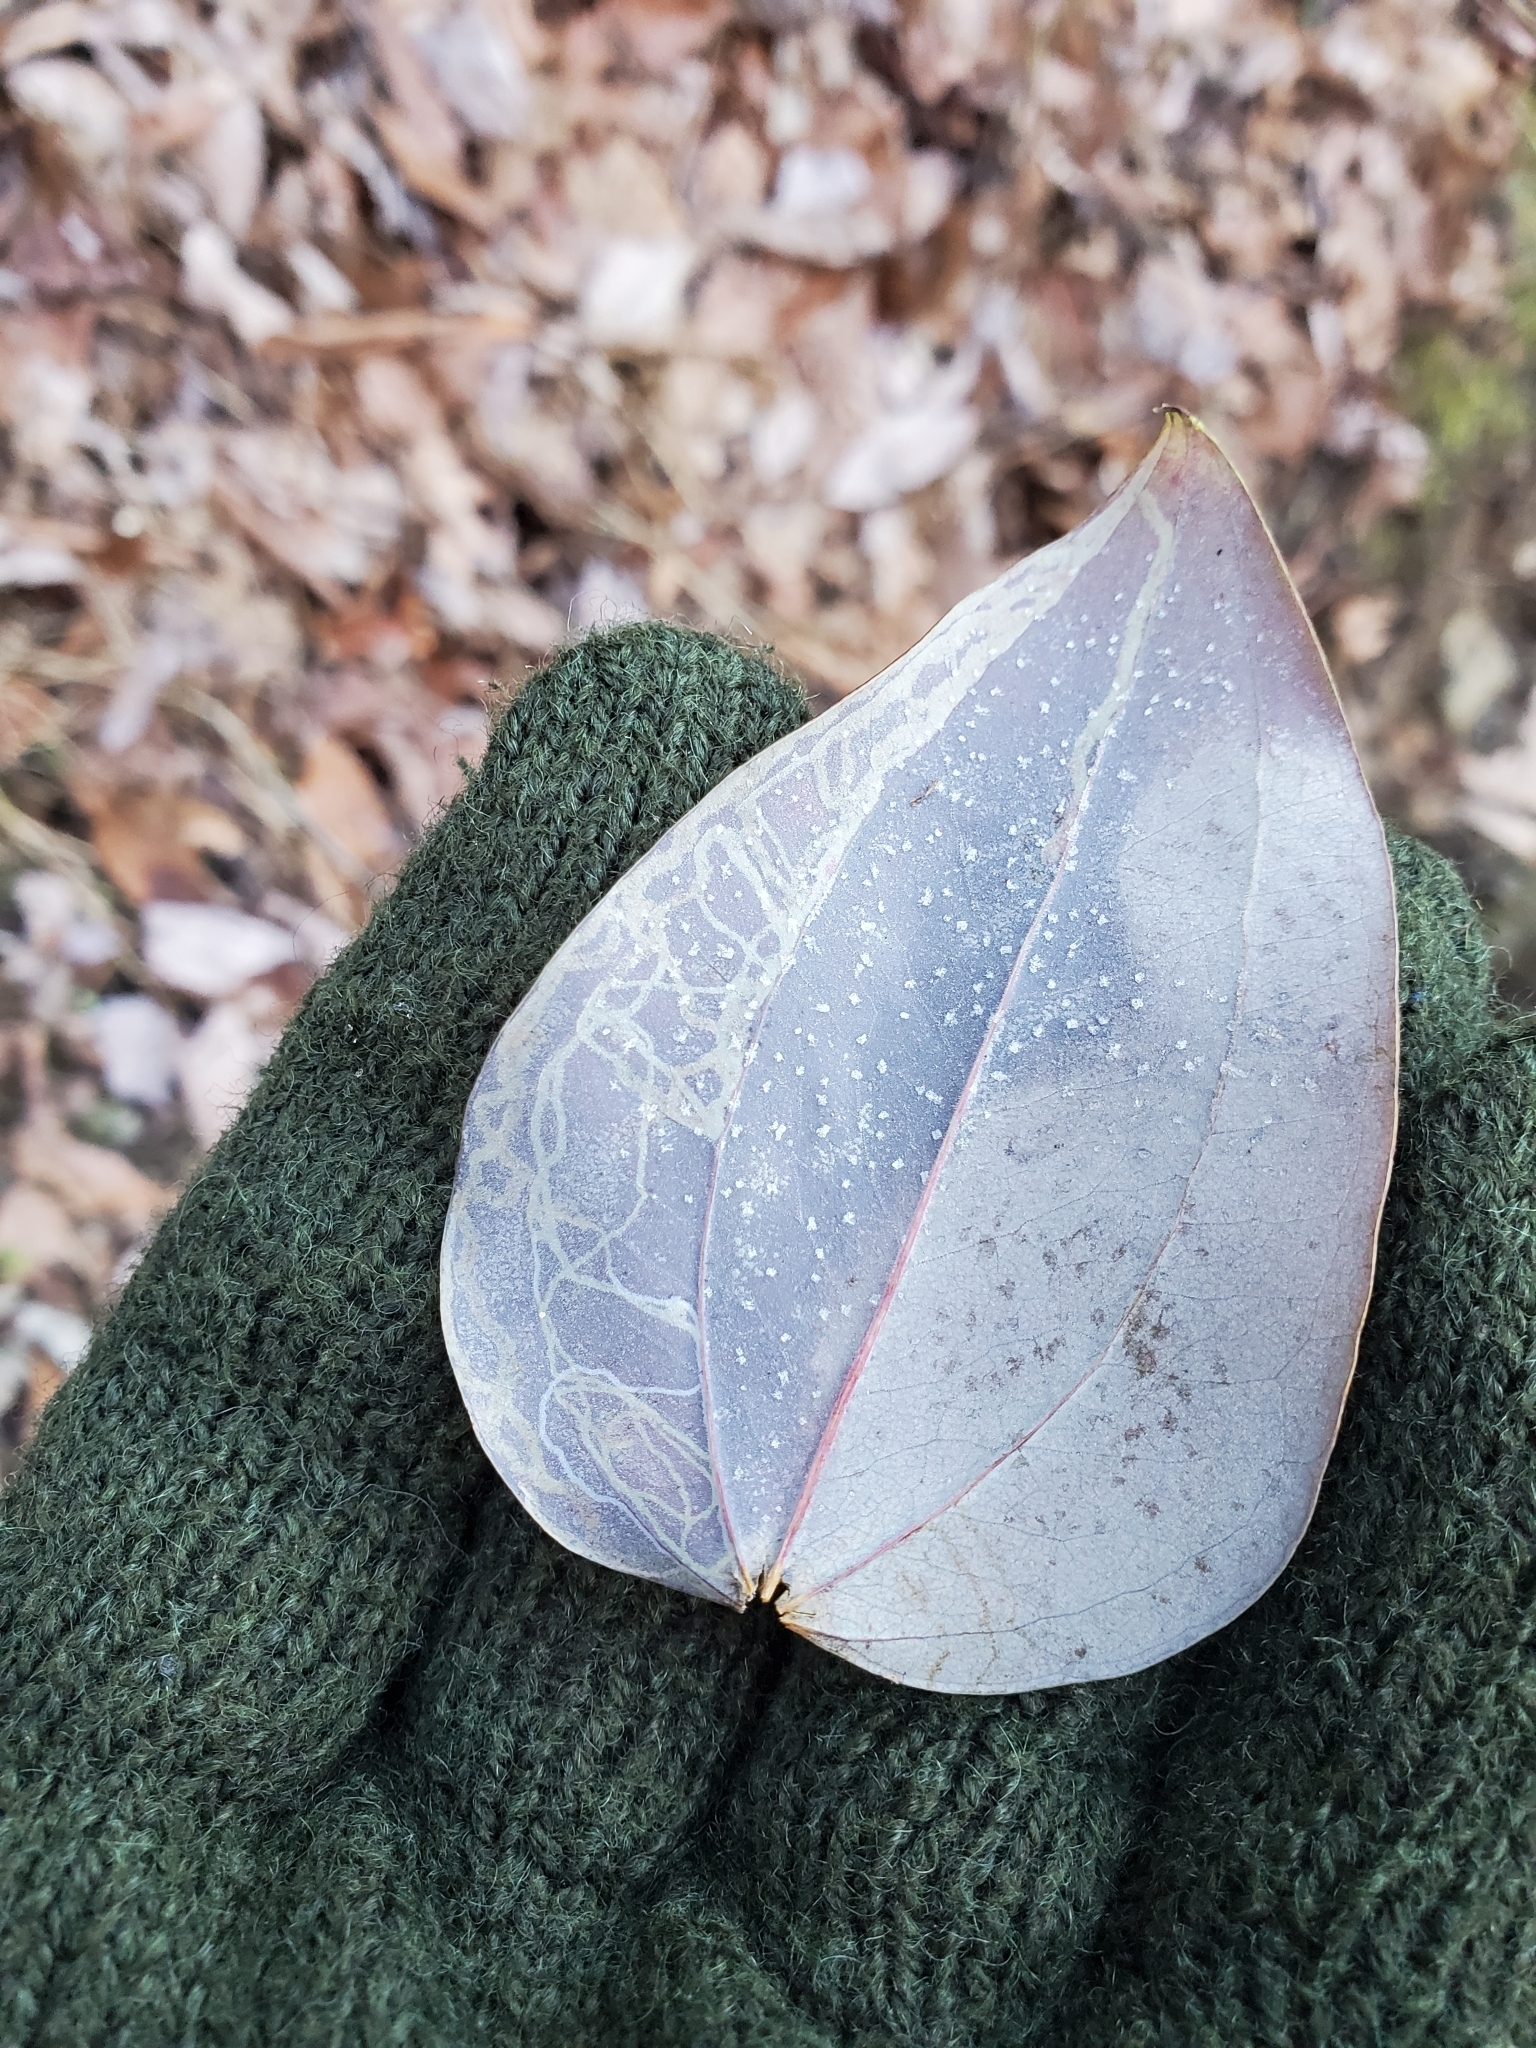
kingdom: Animalia
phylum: Arthropoda
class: Insecta
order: Lepidoptera
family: Gracillariidae
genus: Marmara
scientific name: Marmara smilacisella
